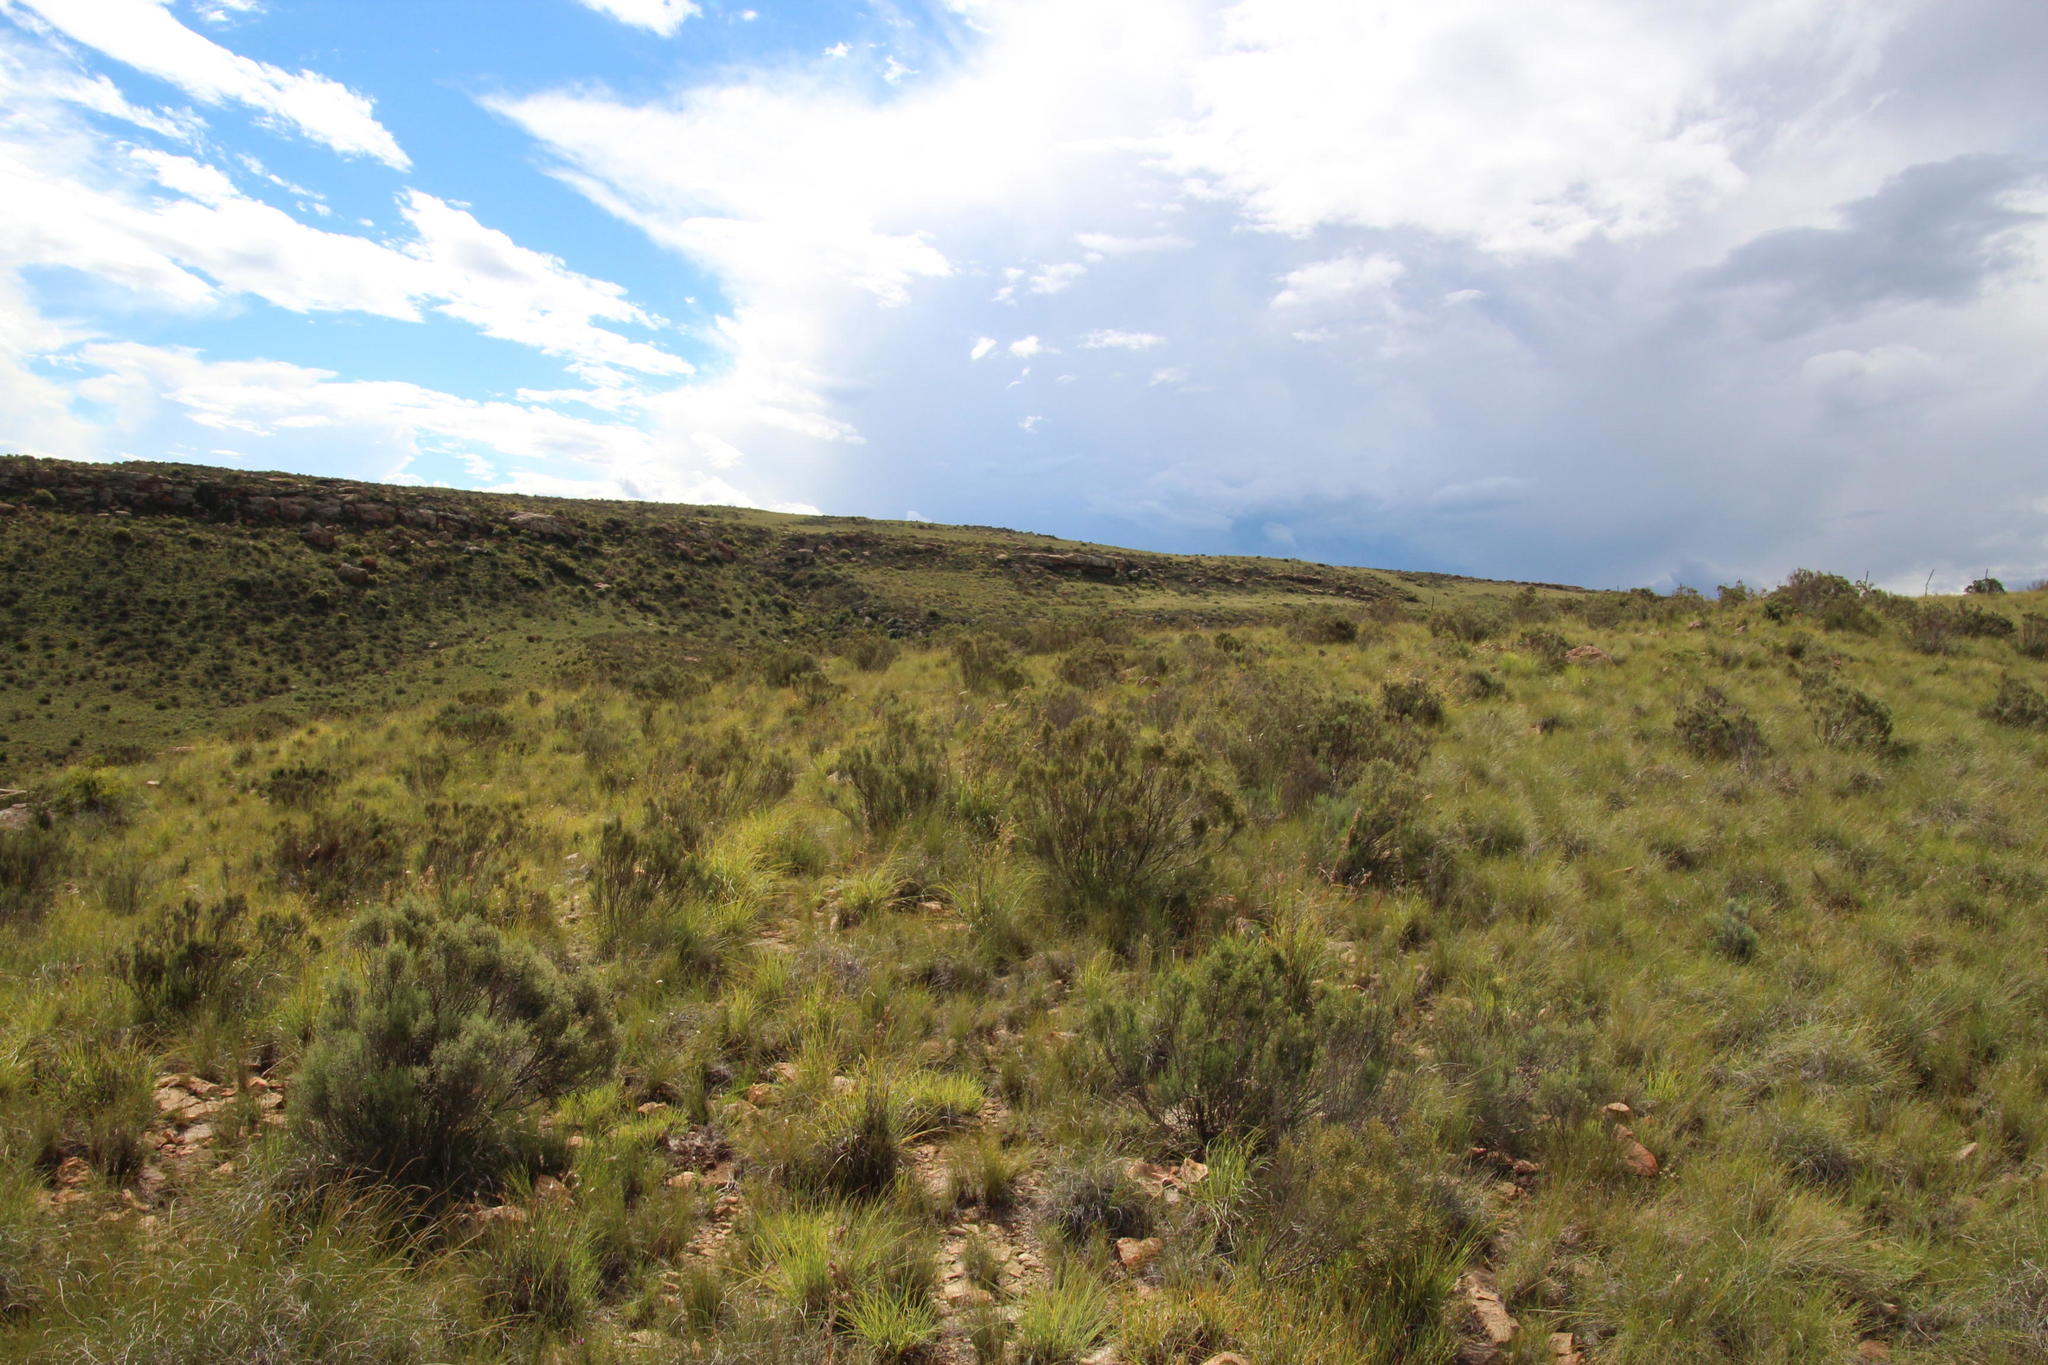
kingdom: Plantae
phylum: Tracheophyta
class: Magnoliopsida
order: Asterales
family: Asteraceae
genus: Dicerothamnus
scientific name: Dicerothamnus rhinocerotis
